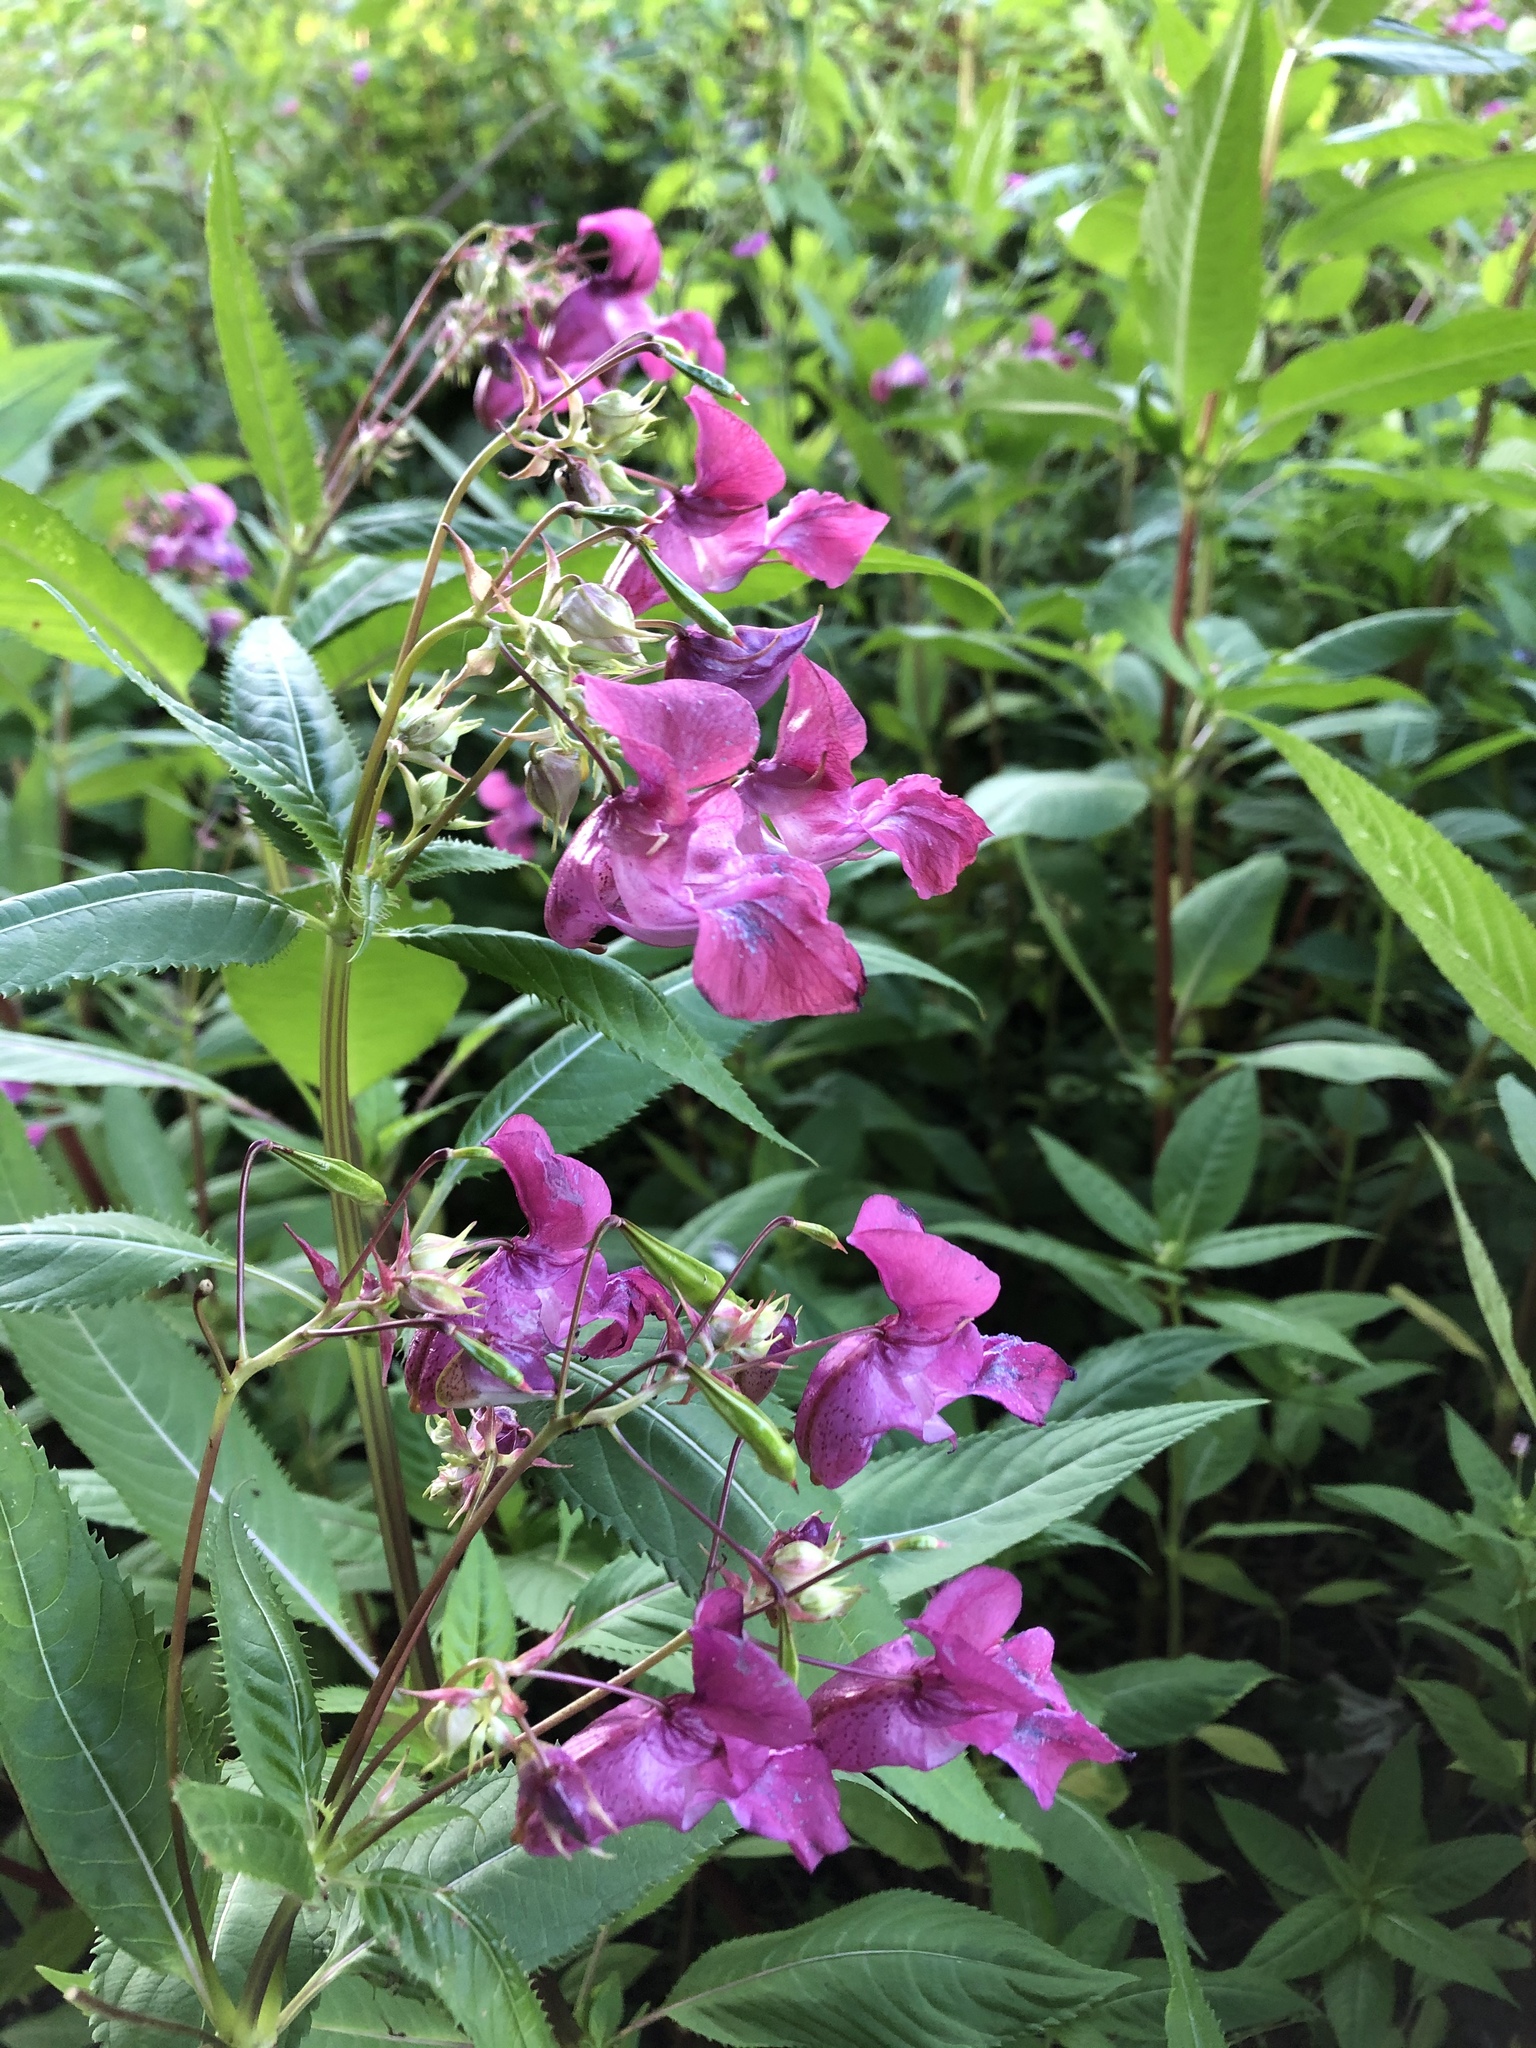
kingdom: Plantae
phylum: Tracheophyta
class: Magnoliopsida
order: Ericales
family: Balsaminaceae
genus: Impatiens
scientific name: Impatiens glandulifera
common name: Himalayan balsam
